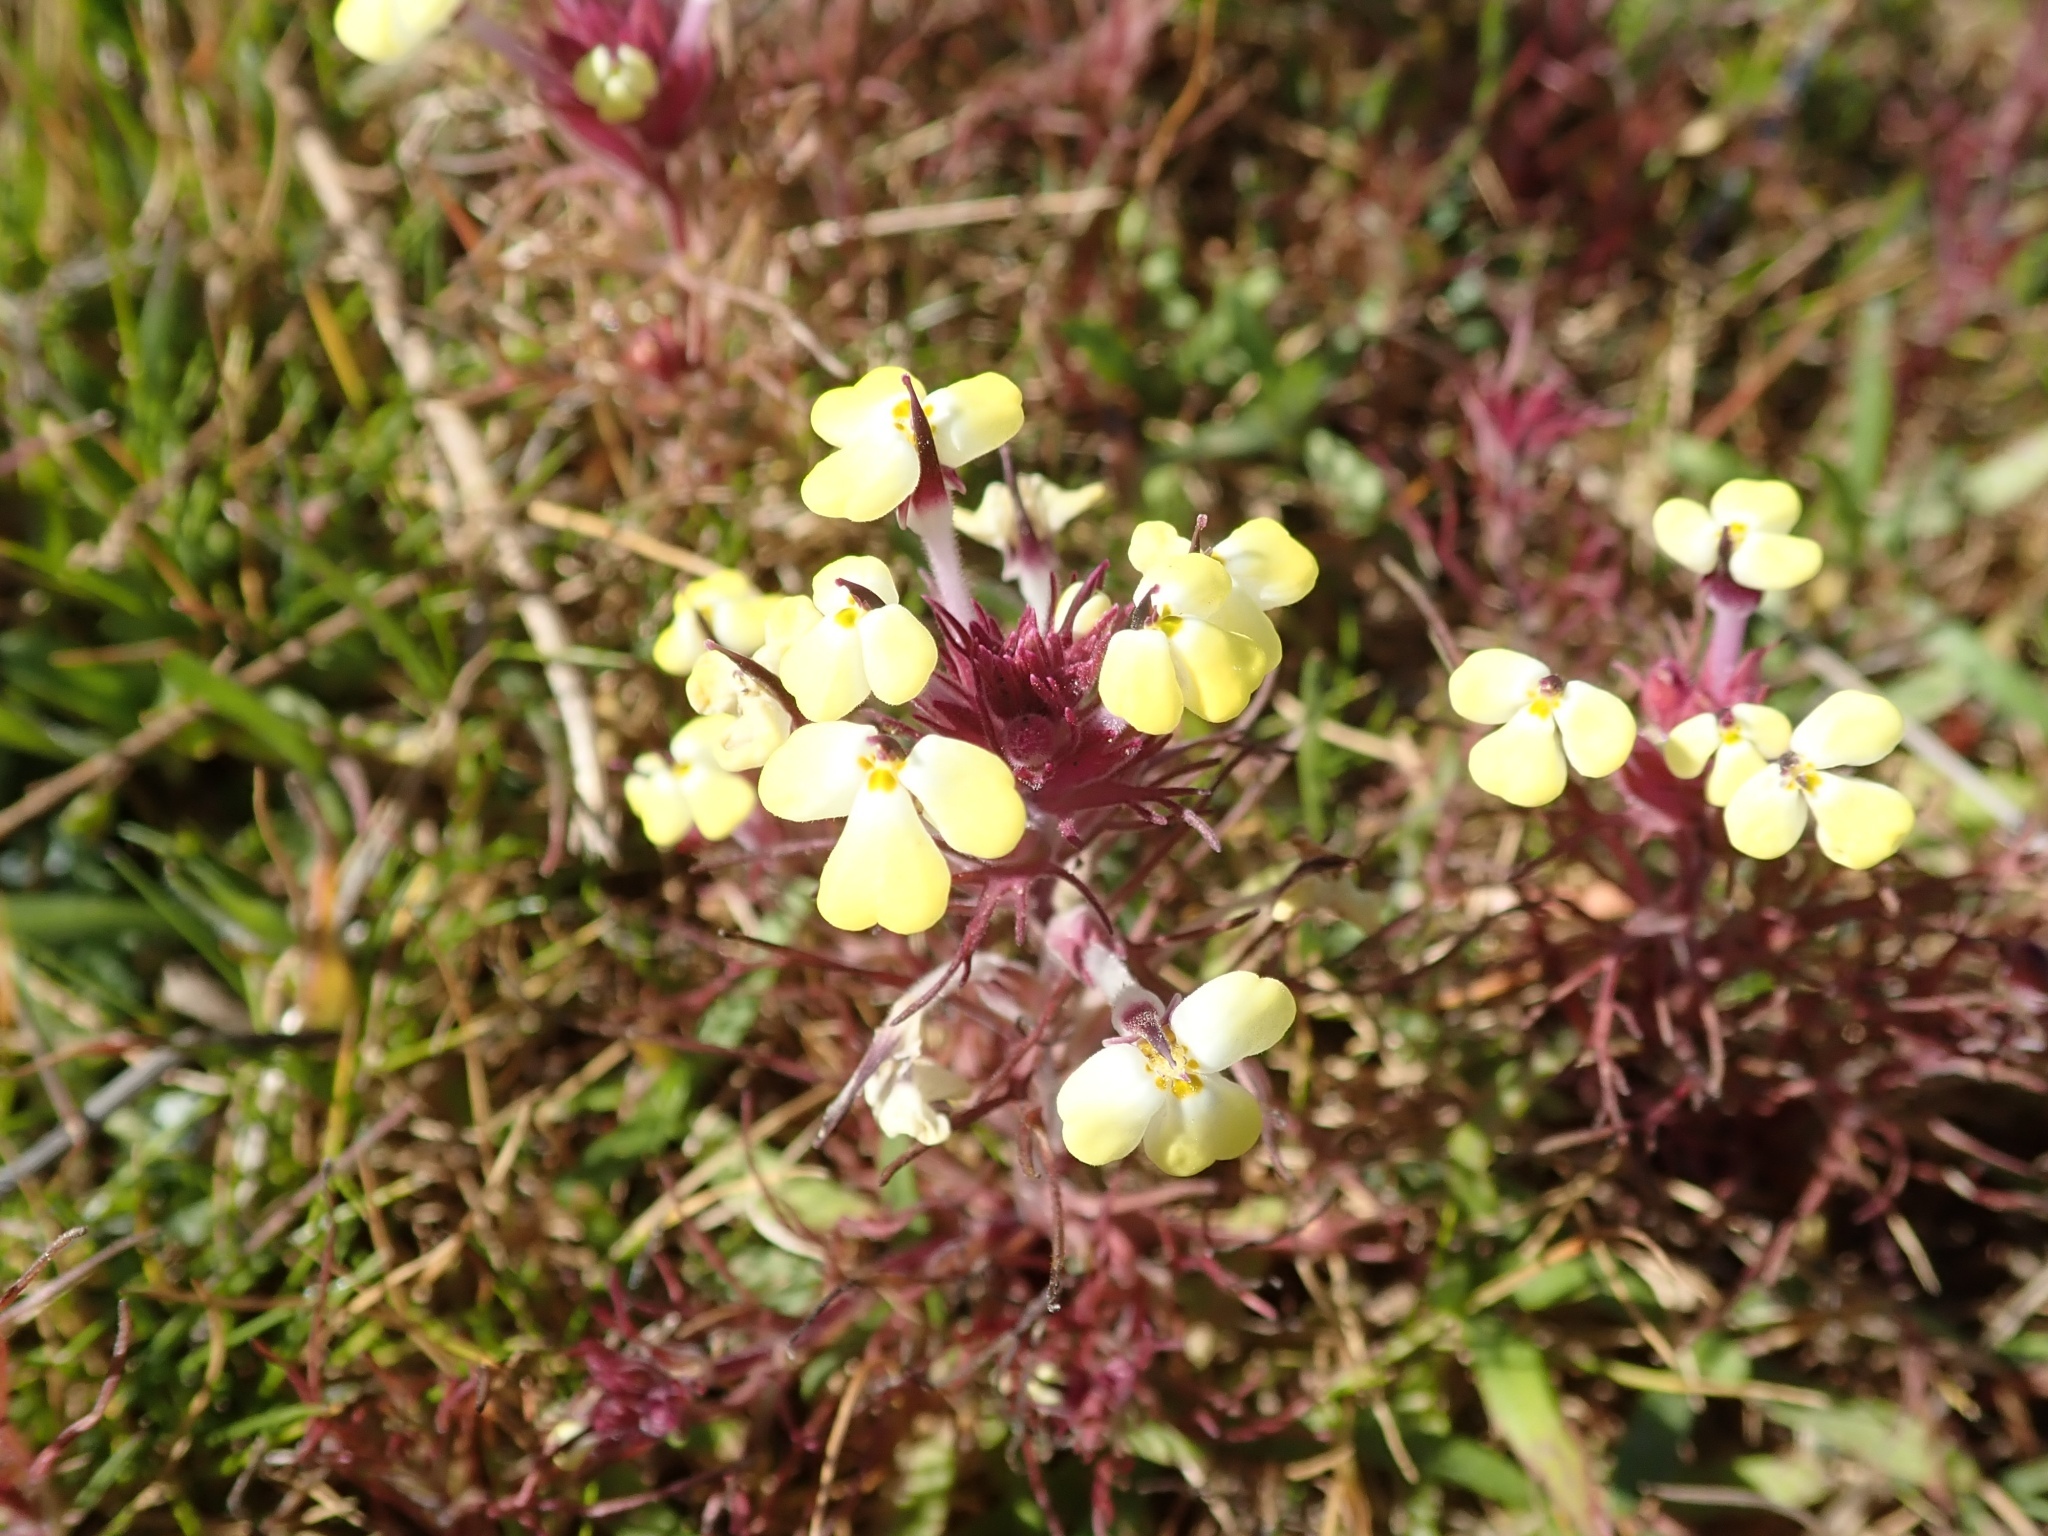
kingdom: Plantae
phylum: Tracheophyta
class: Magnoliopsida
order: Lamiales
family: Orobanchaceae
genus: Triphysaria
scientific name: Triphysaria eriantha
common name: Johnny-tuck
